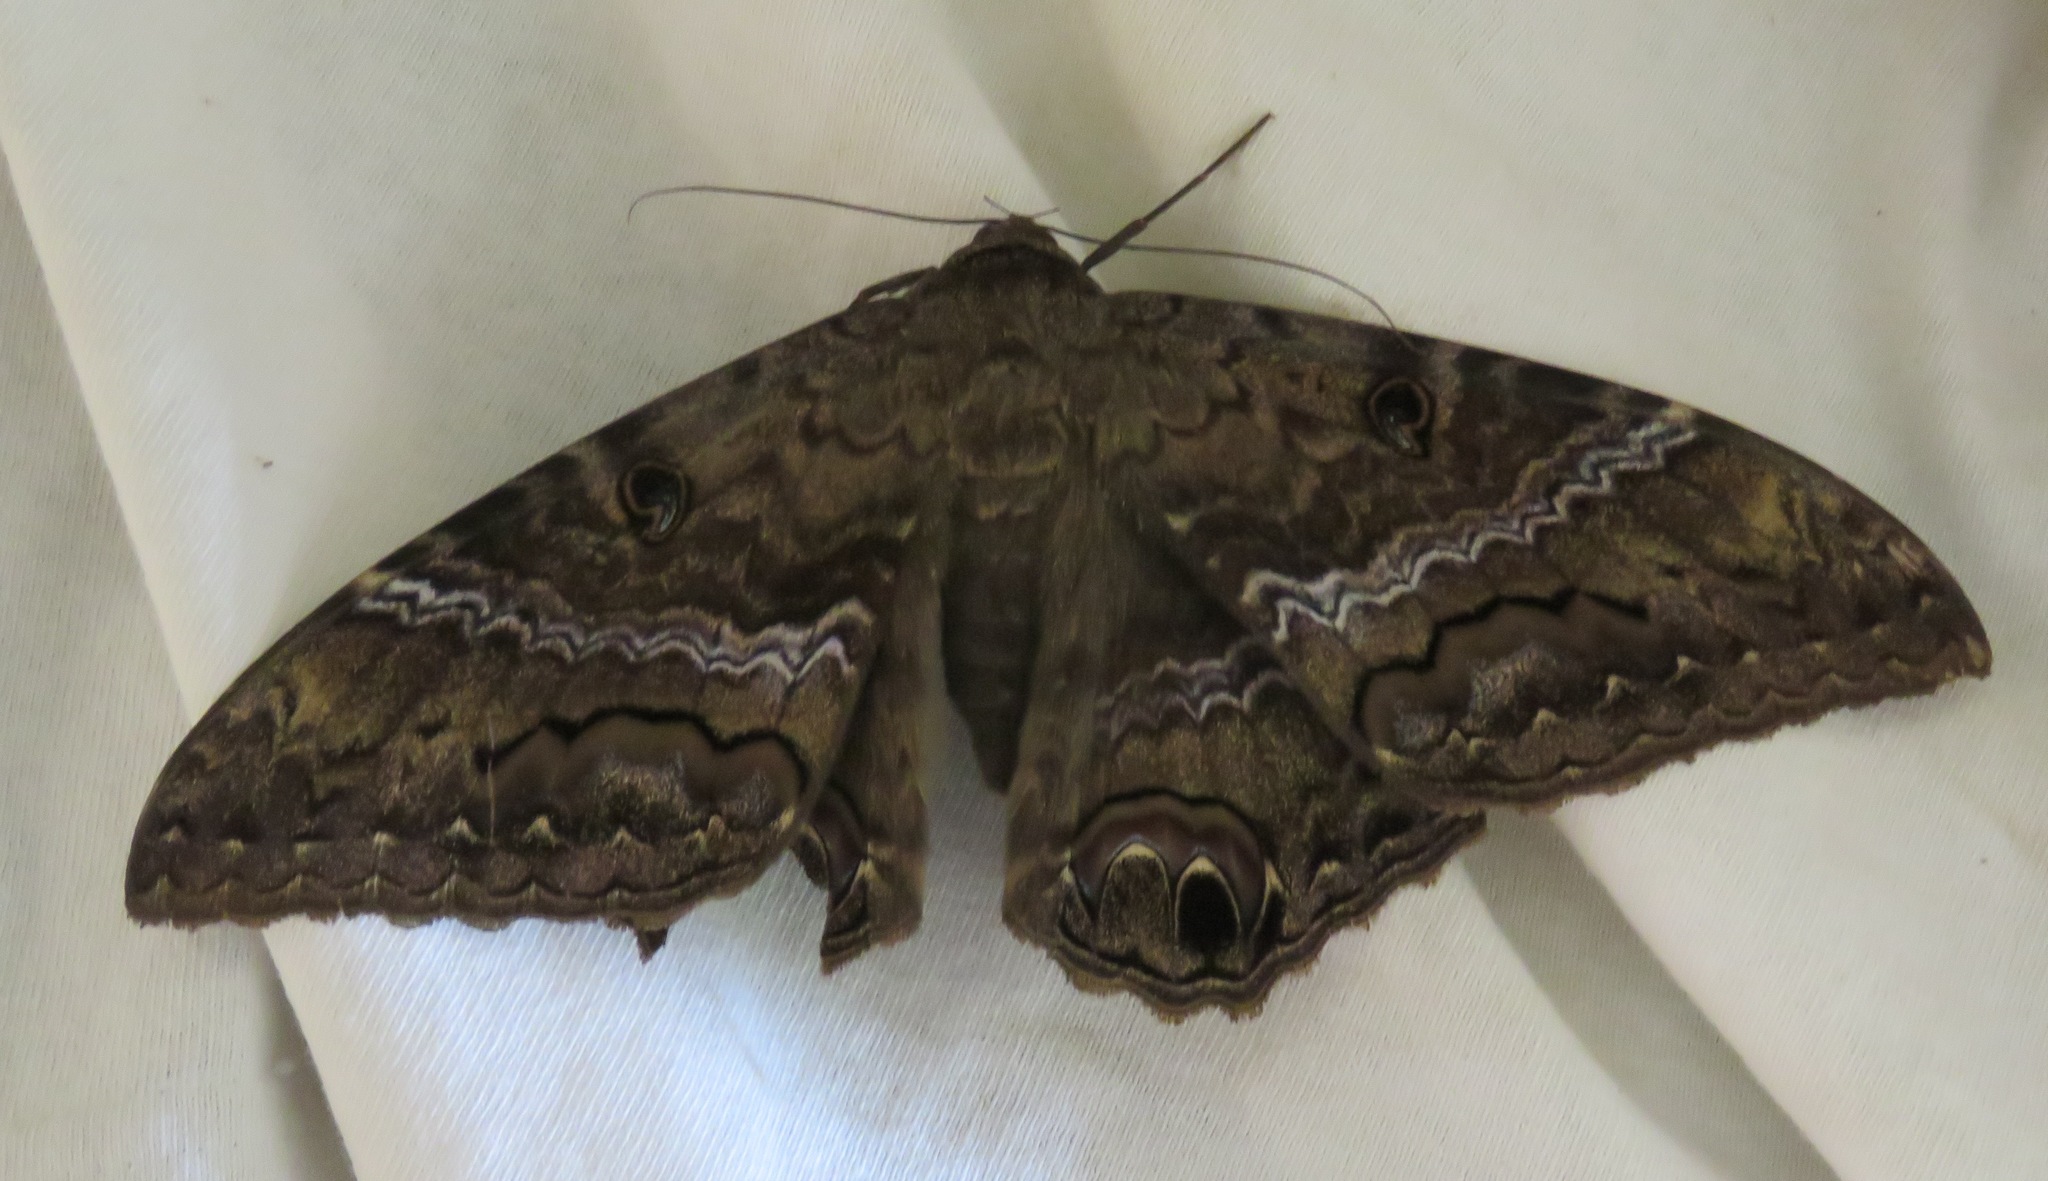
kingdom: Animalia
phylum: Arthropoda
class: Insecta
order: Lepidoptera
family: Erebidae
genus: Ascalapha
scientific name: Ascalapha odorata
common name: Black witch
